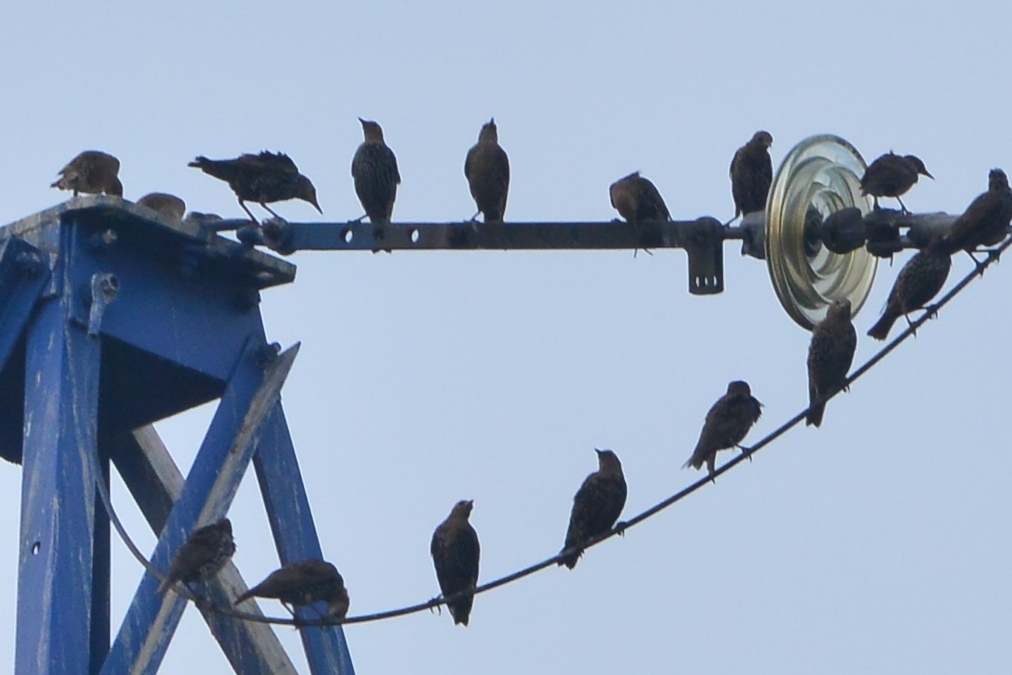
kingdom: Animalia
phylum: Chordata
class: Aves
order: Passeriformes
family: Sturnidae
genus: Sturnus
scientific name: Sturnus vulgaris
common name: Common starling
